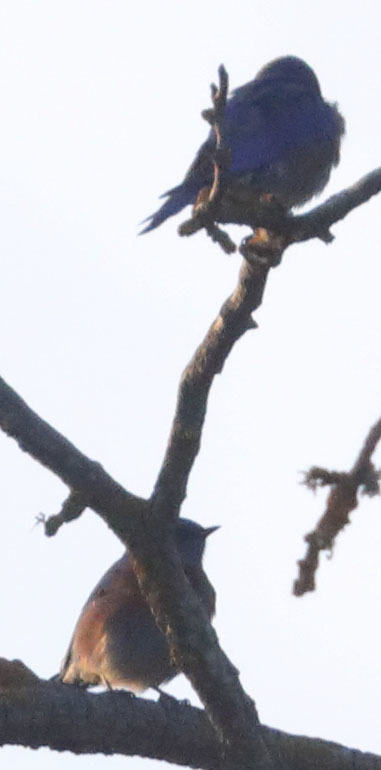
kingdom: Animalia
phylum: Chordata
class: Aves
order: Passeriformes
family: Turdidae
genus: Sialia
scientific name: Sialia mexicana
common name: Western bluebird
